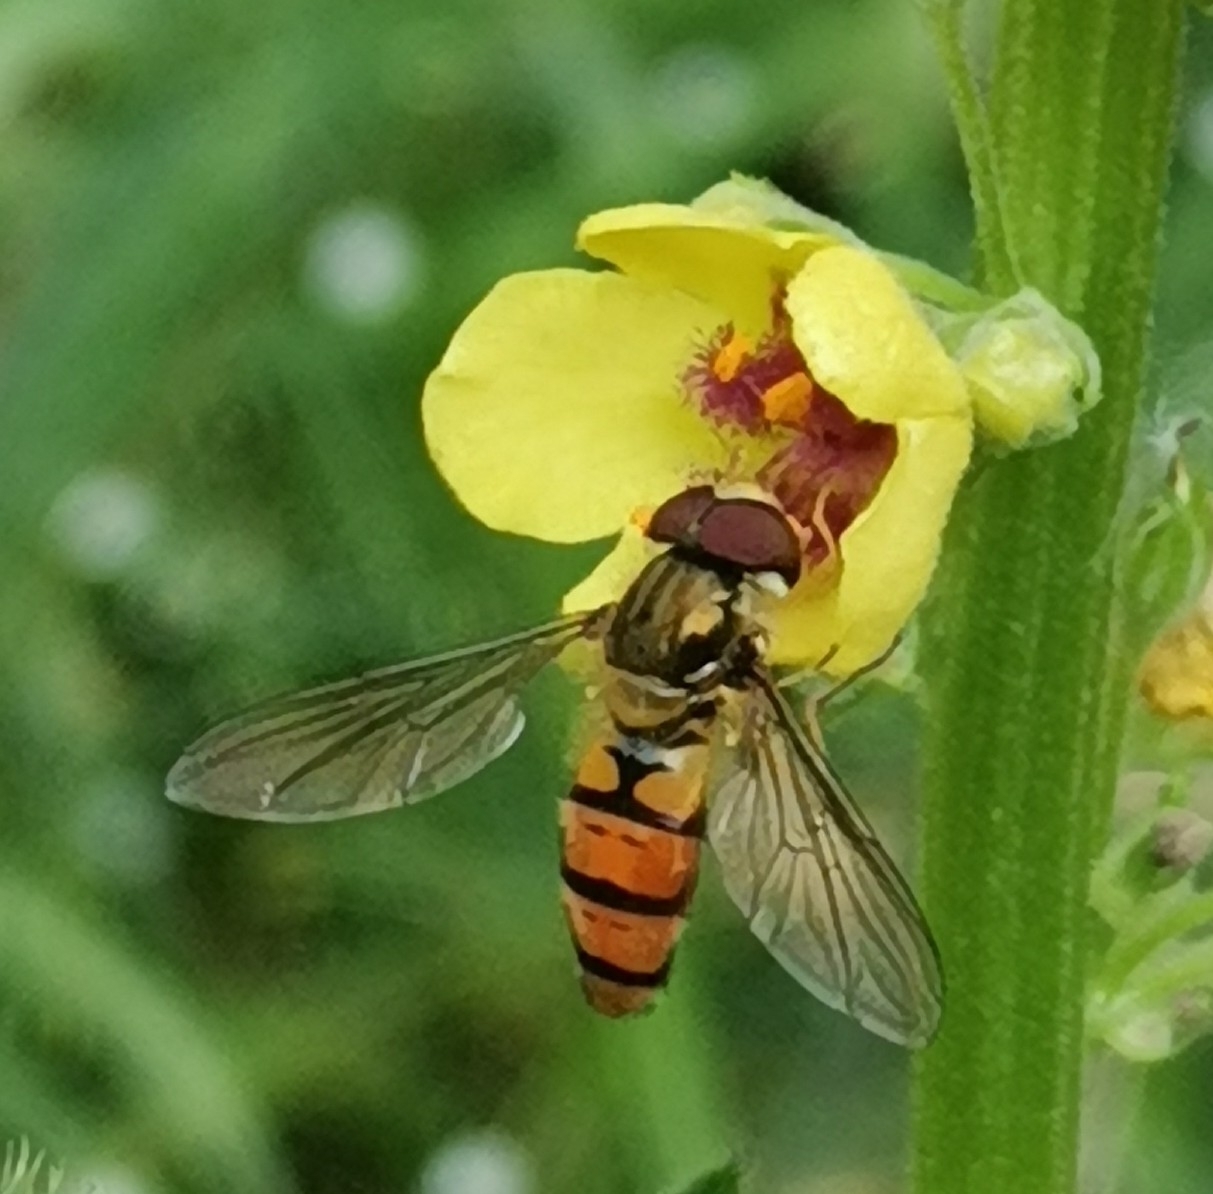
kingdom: Animalia
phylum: Arthropoda
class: Insecta
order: Diptera
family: Syrphidae
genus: Episyrphus
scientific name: Episyrphus balteatus
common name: Marmalade hoverfly
